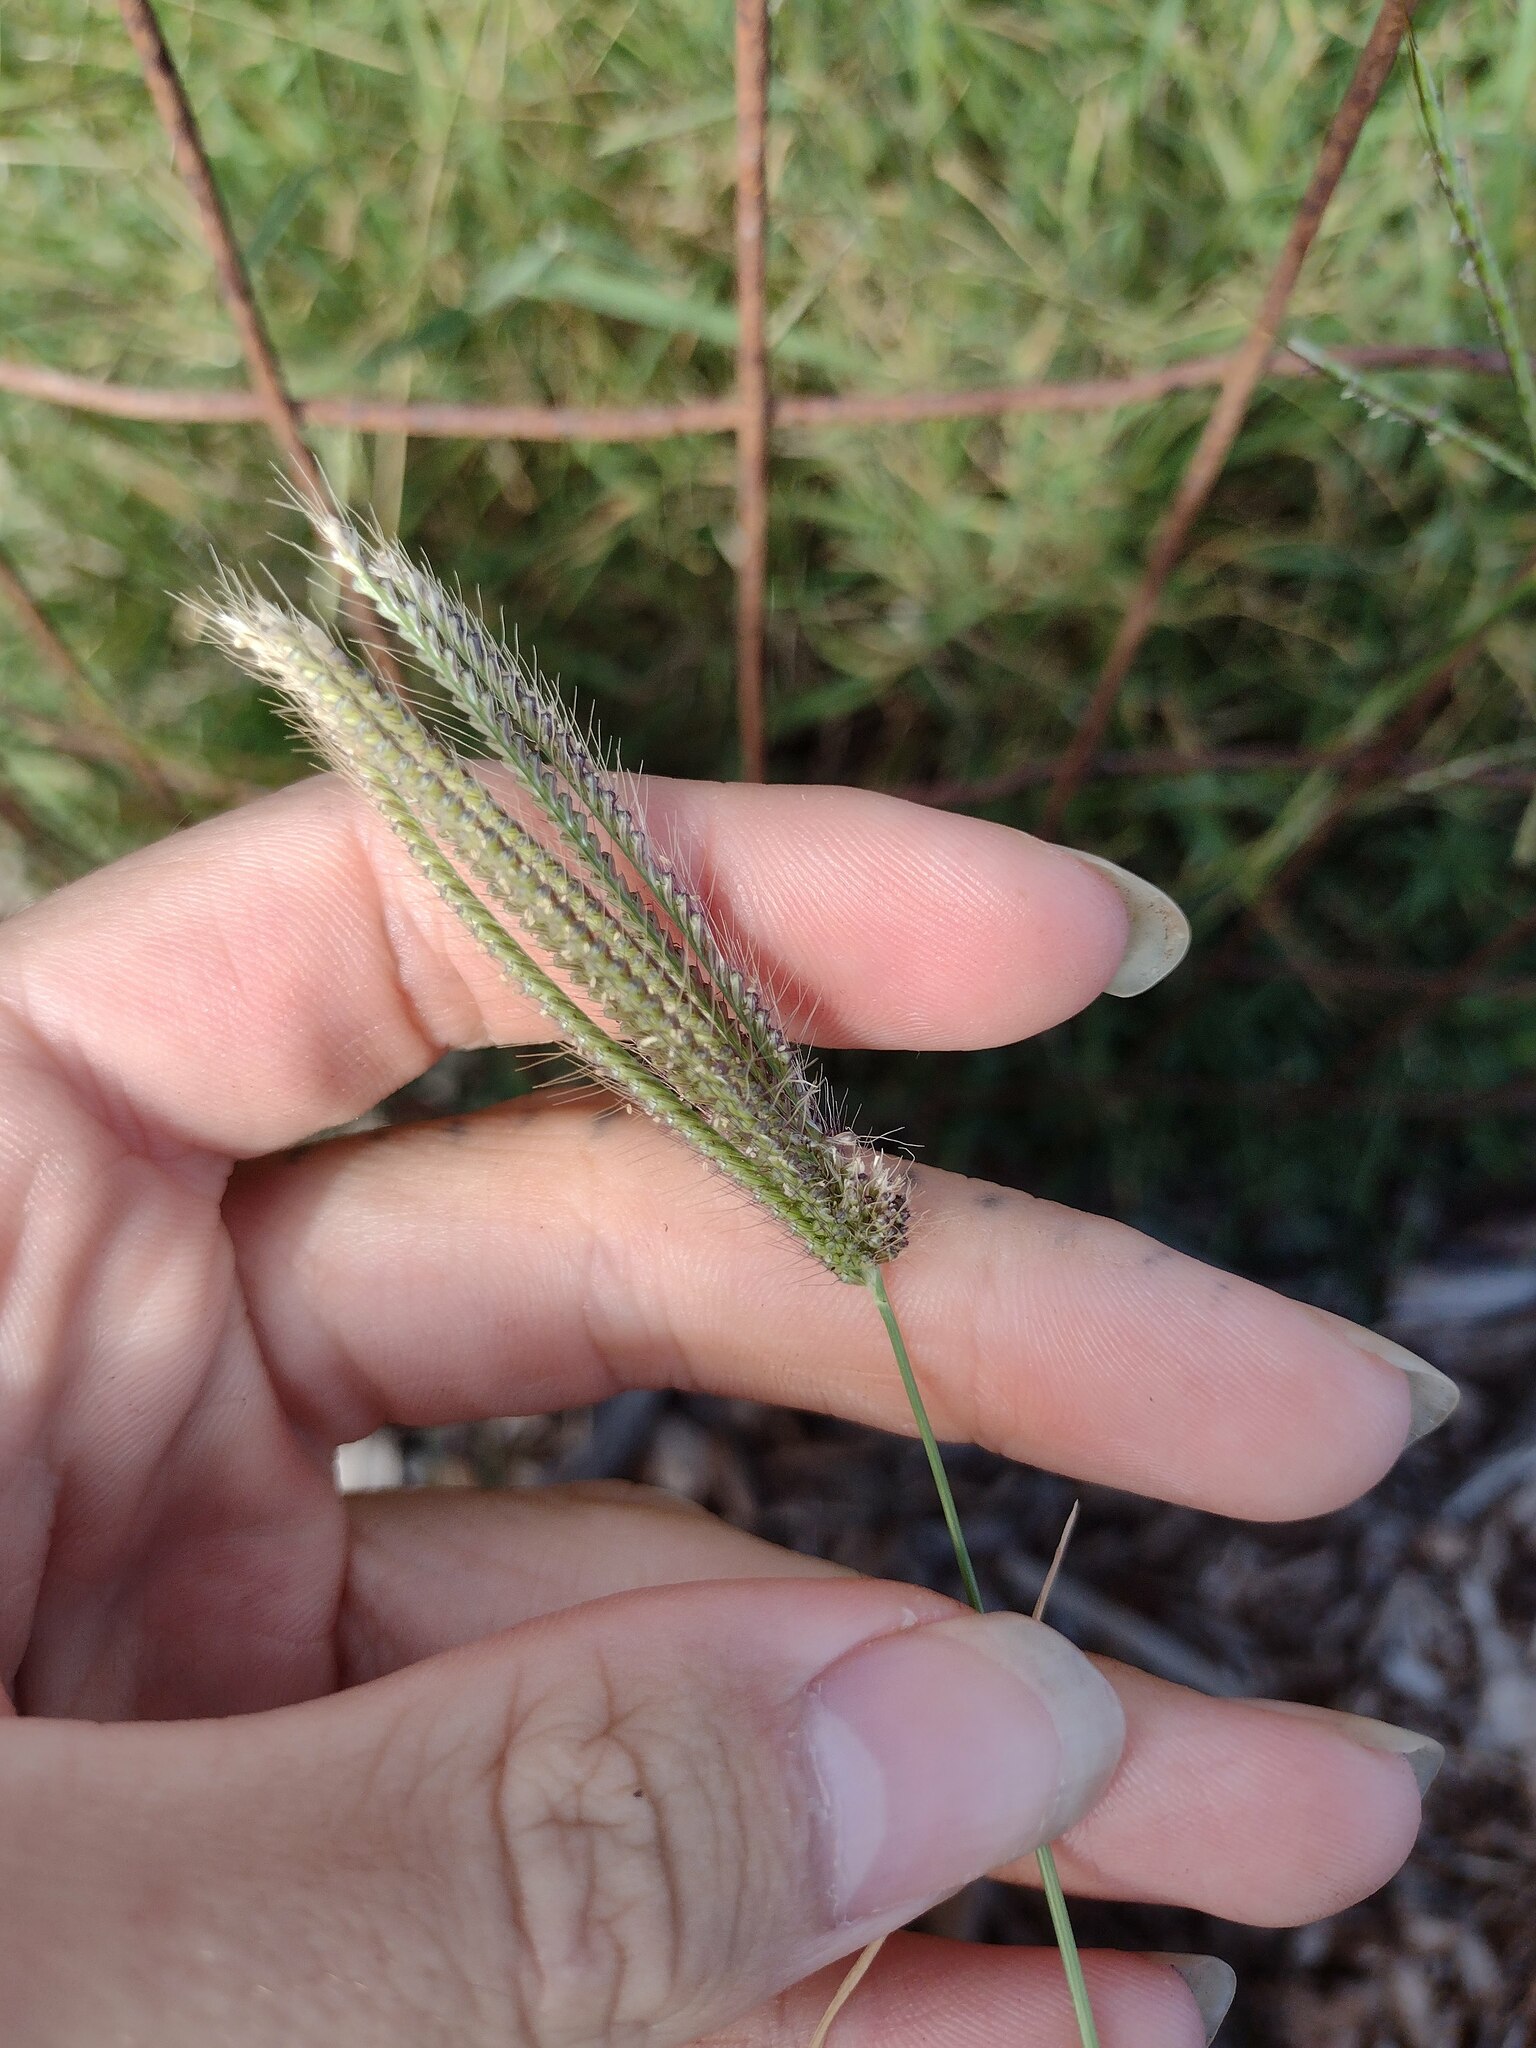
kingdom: Plantae
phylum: Tracheophyta
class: Liliopsida
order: Poales
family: Poaceae
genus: Chloris
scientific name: Chloris barbata
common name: Swollen fingergrass
